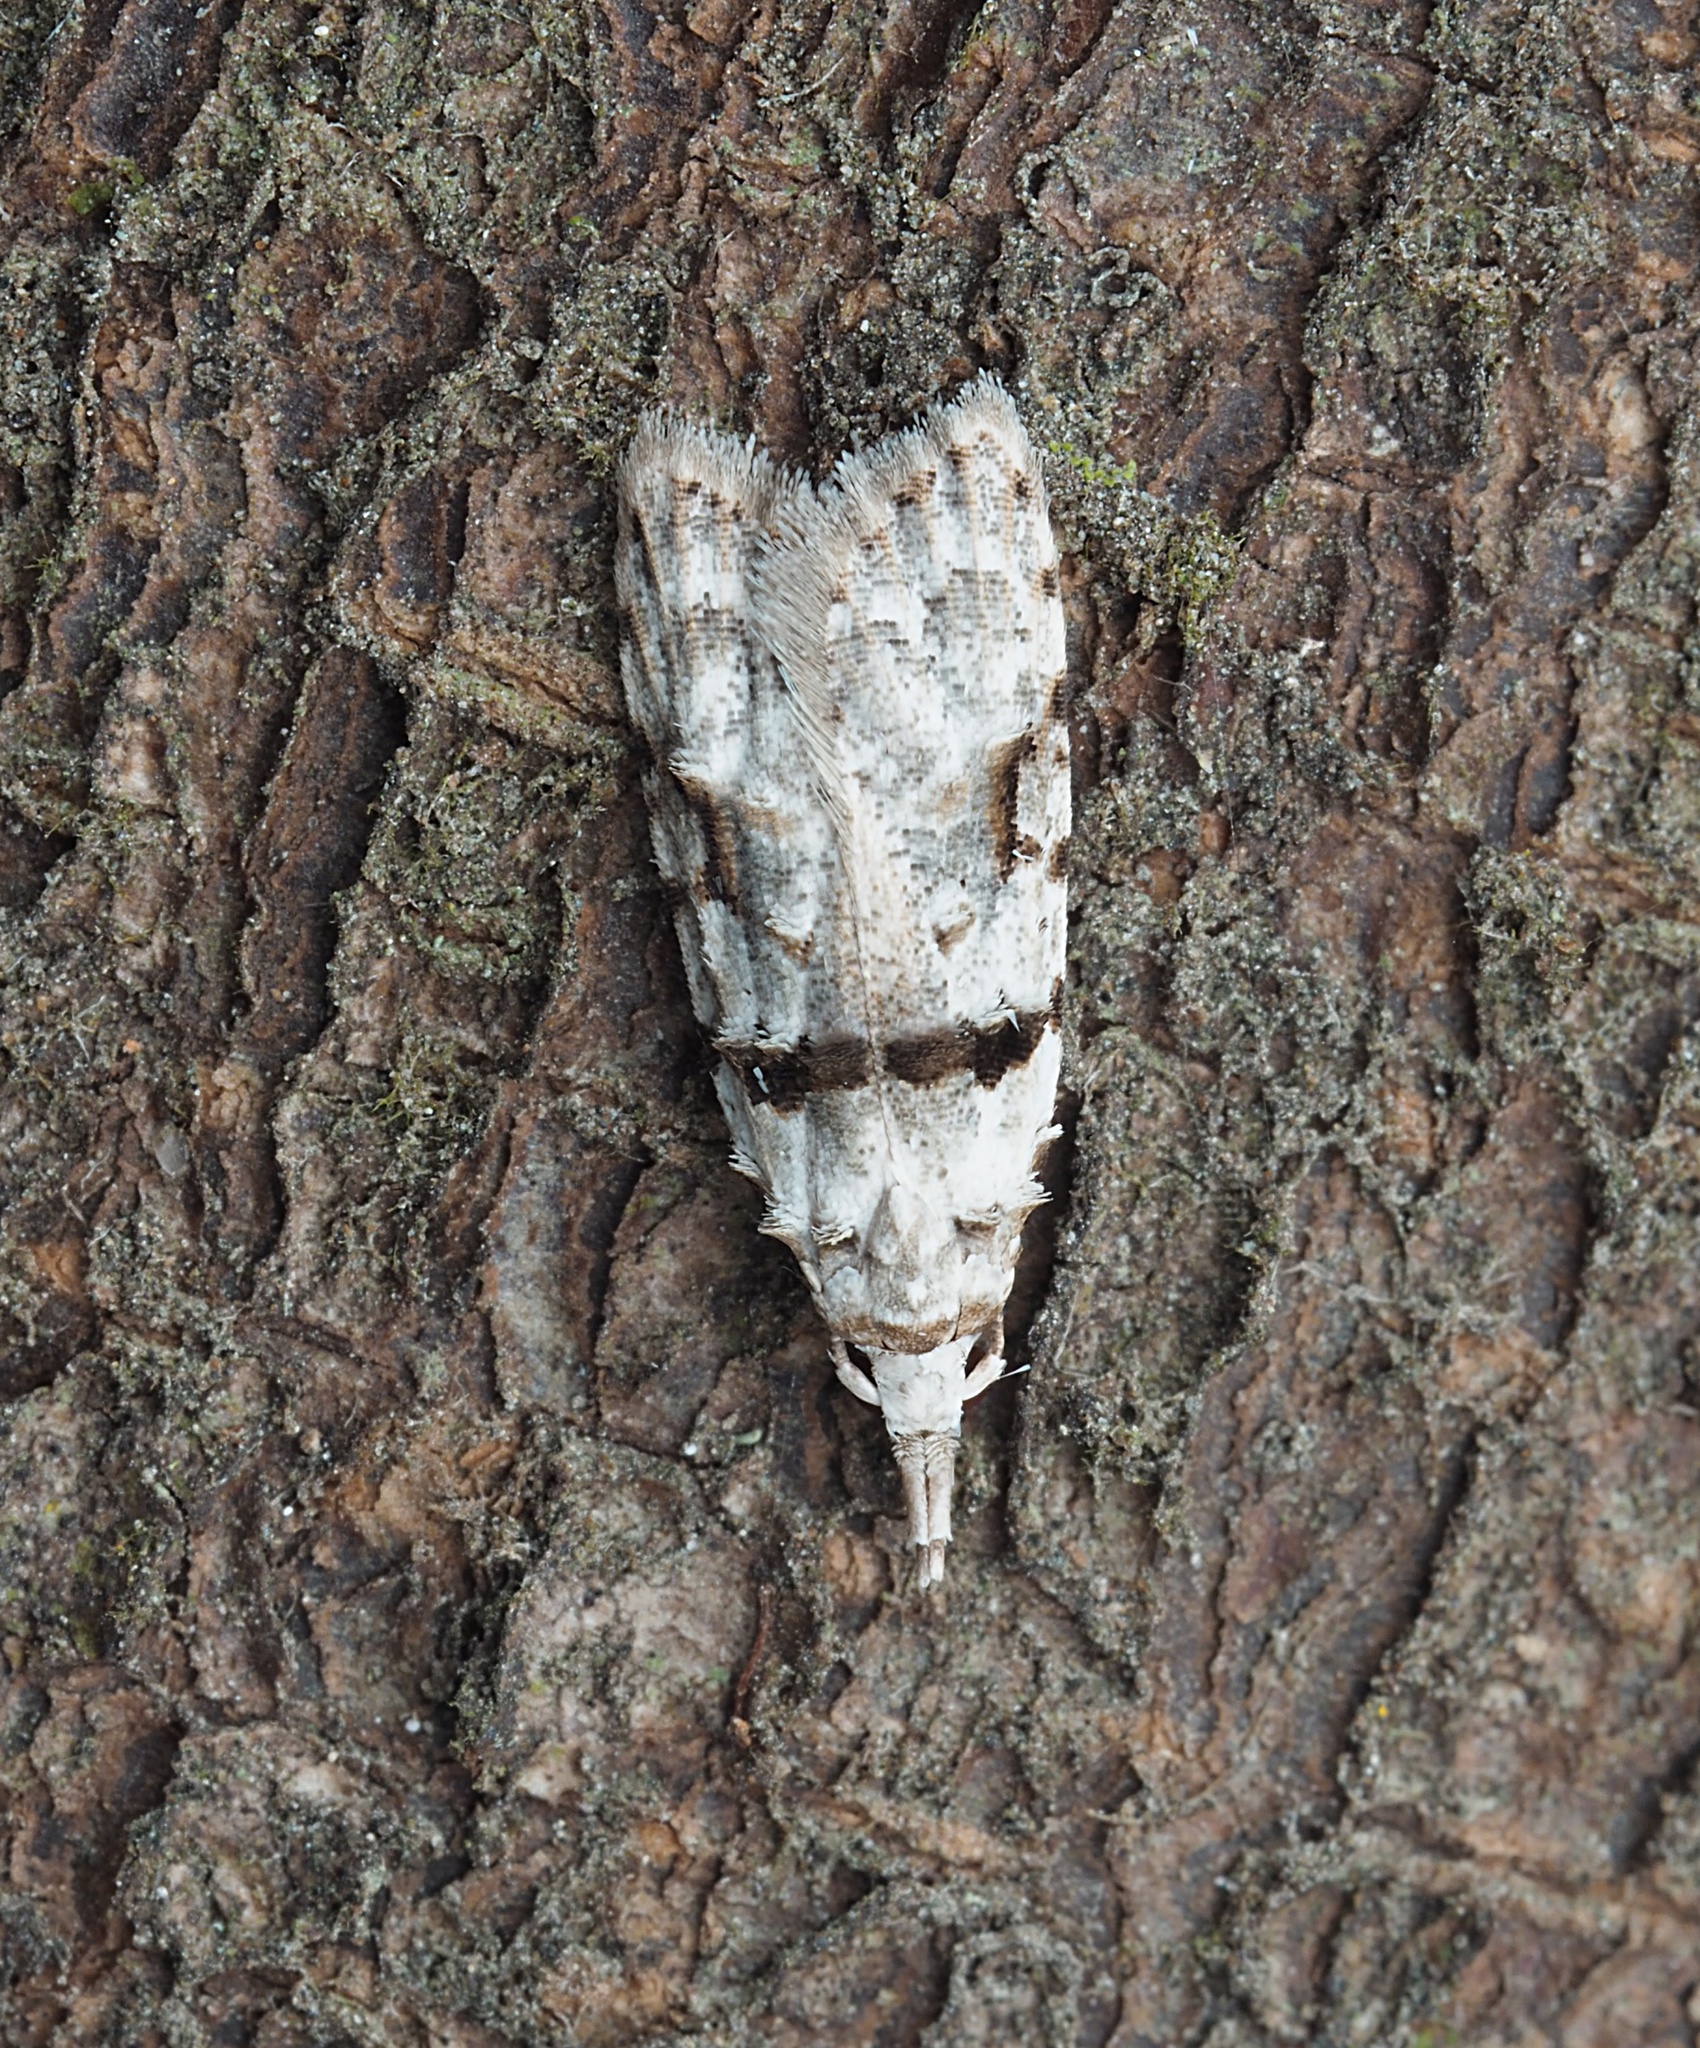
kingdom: Animalia
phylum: Arthropoda
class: Insecta
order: Lepidoptera
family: Carposinidae
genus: Coscinoptycha
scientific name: Coscinoptycha improbana
